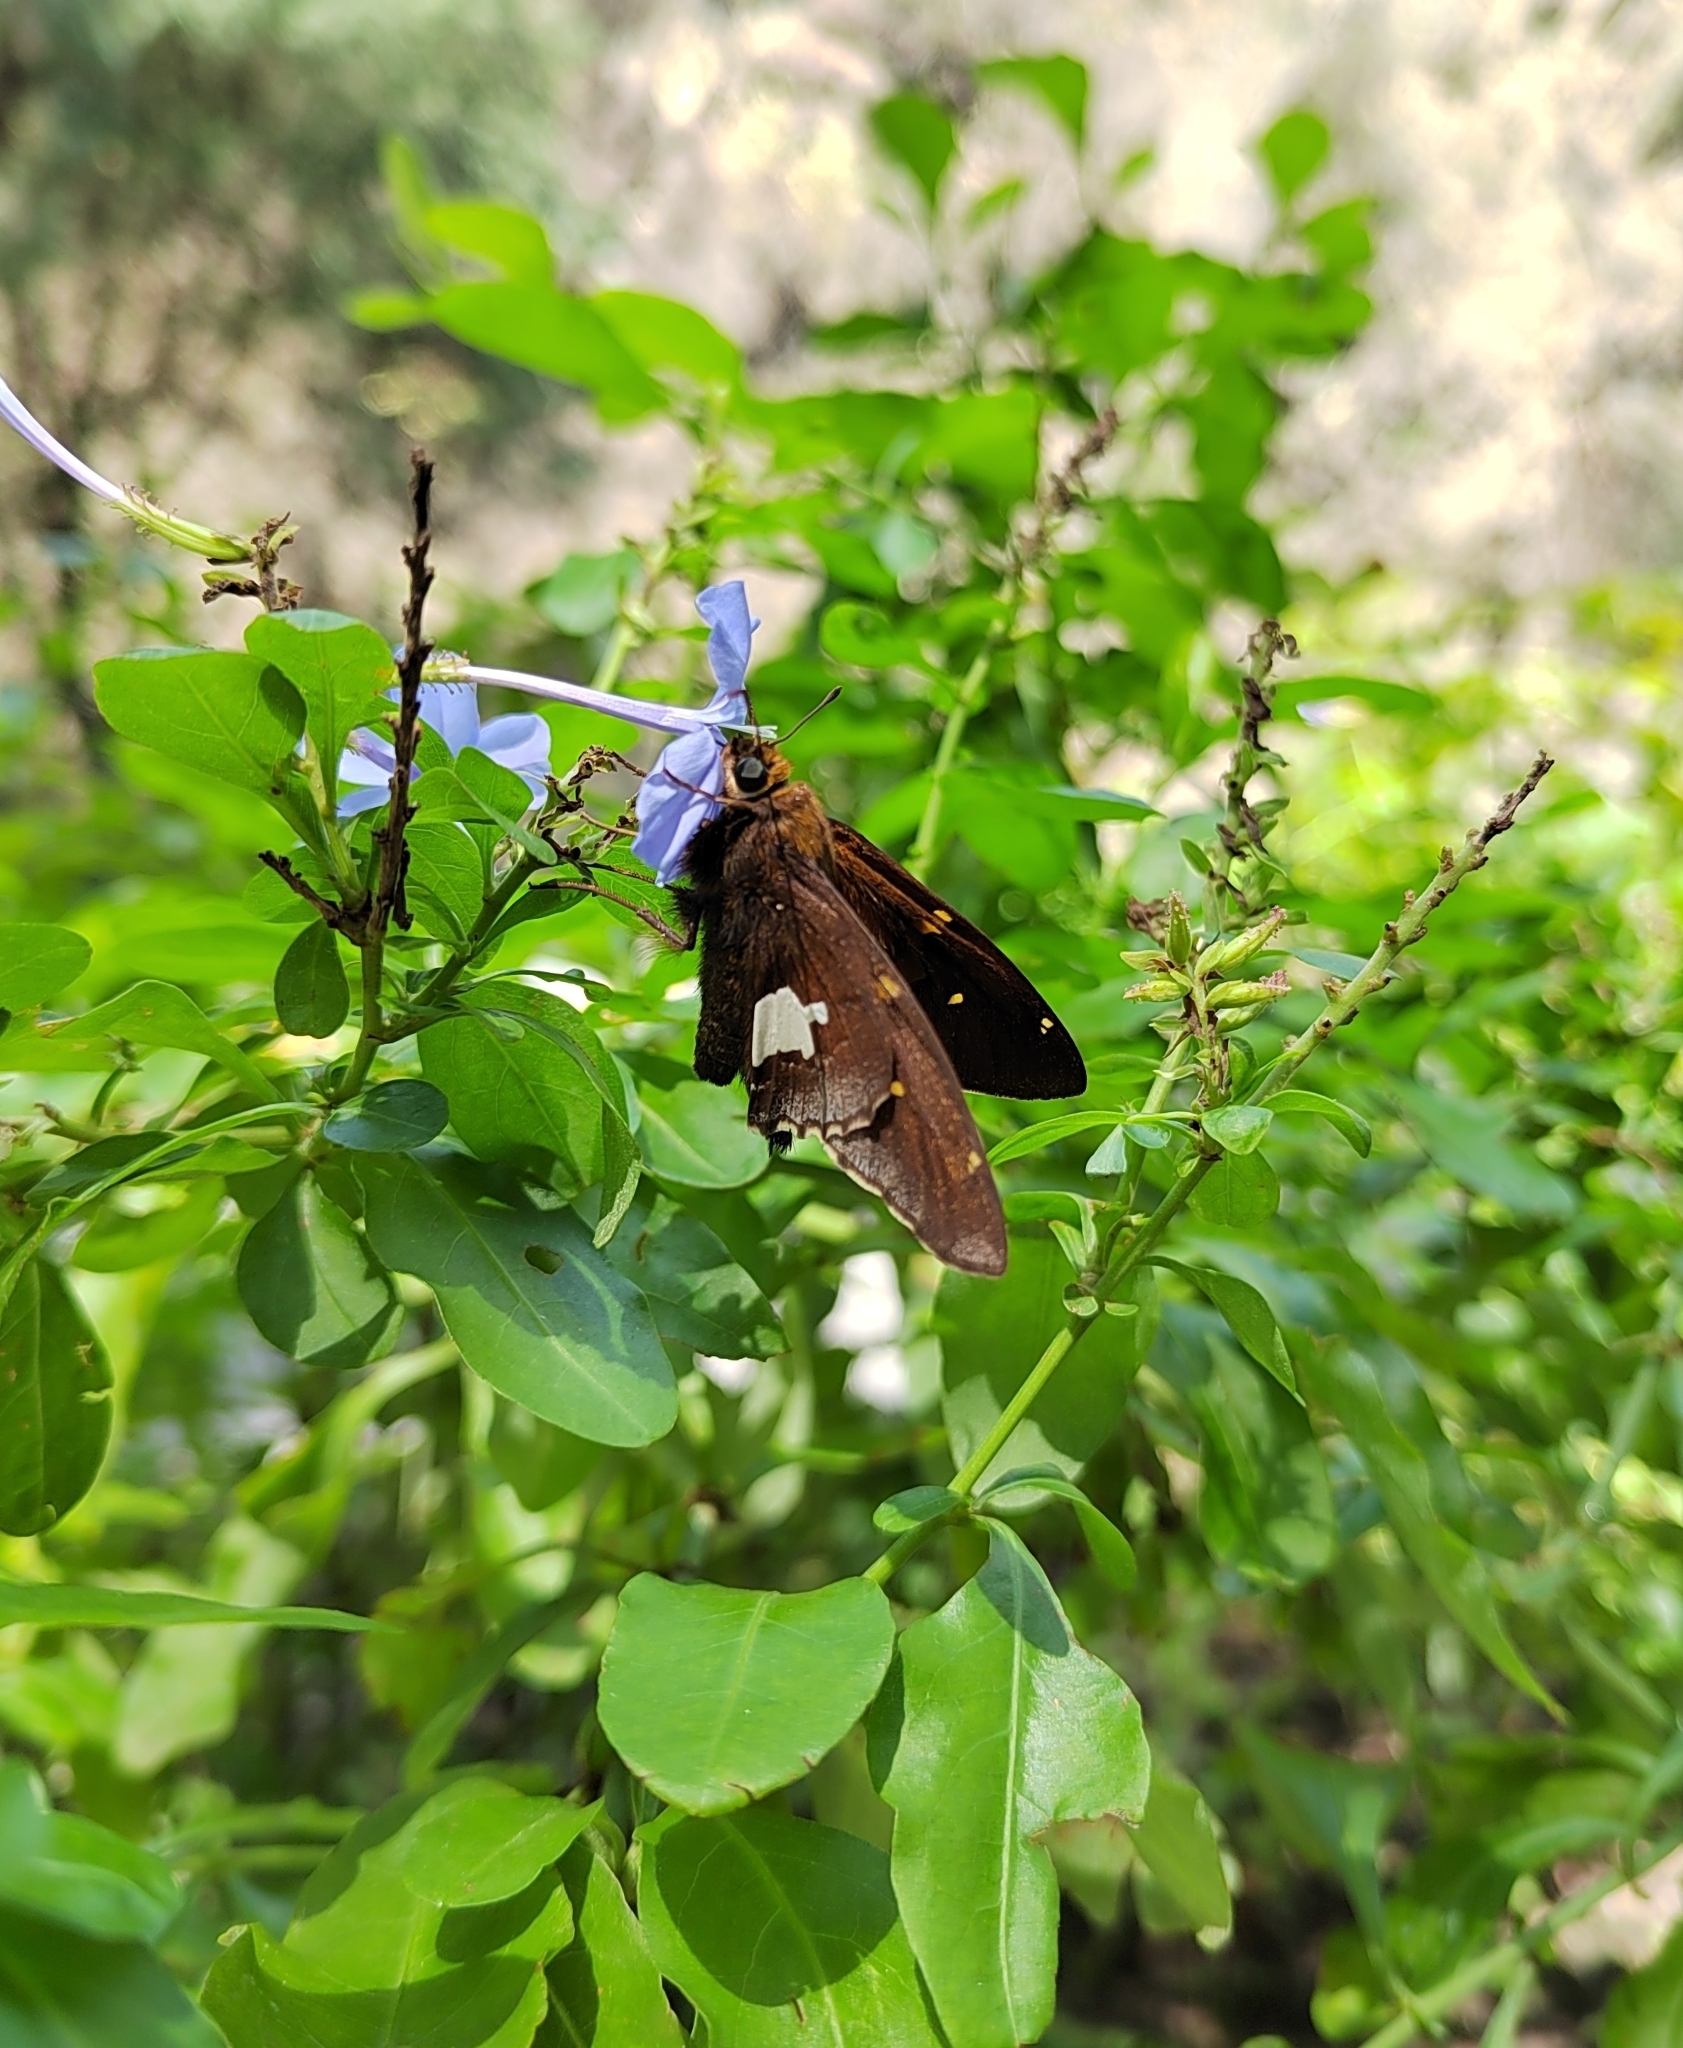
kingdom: Animalia
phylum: Arthropoda
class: Insecta
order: Lepidoptera
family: Hesperiidae
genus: Epargyreus
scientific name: Epargyreus clarus
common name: Silver-spotted skipper
